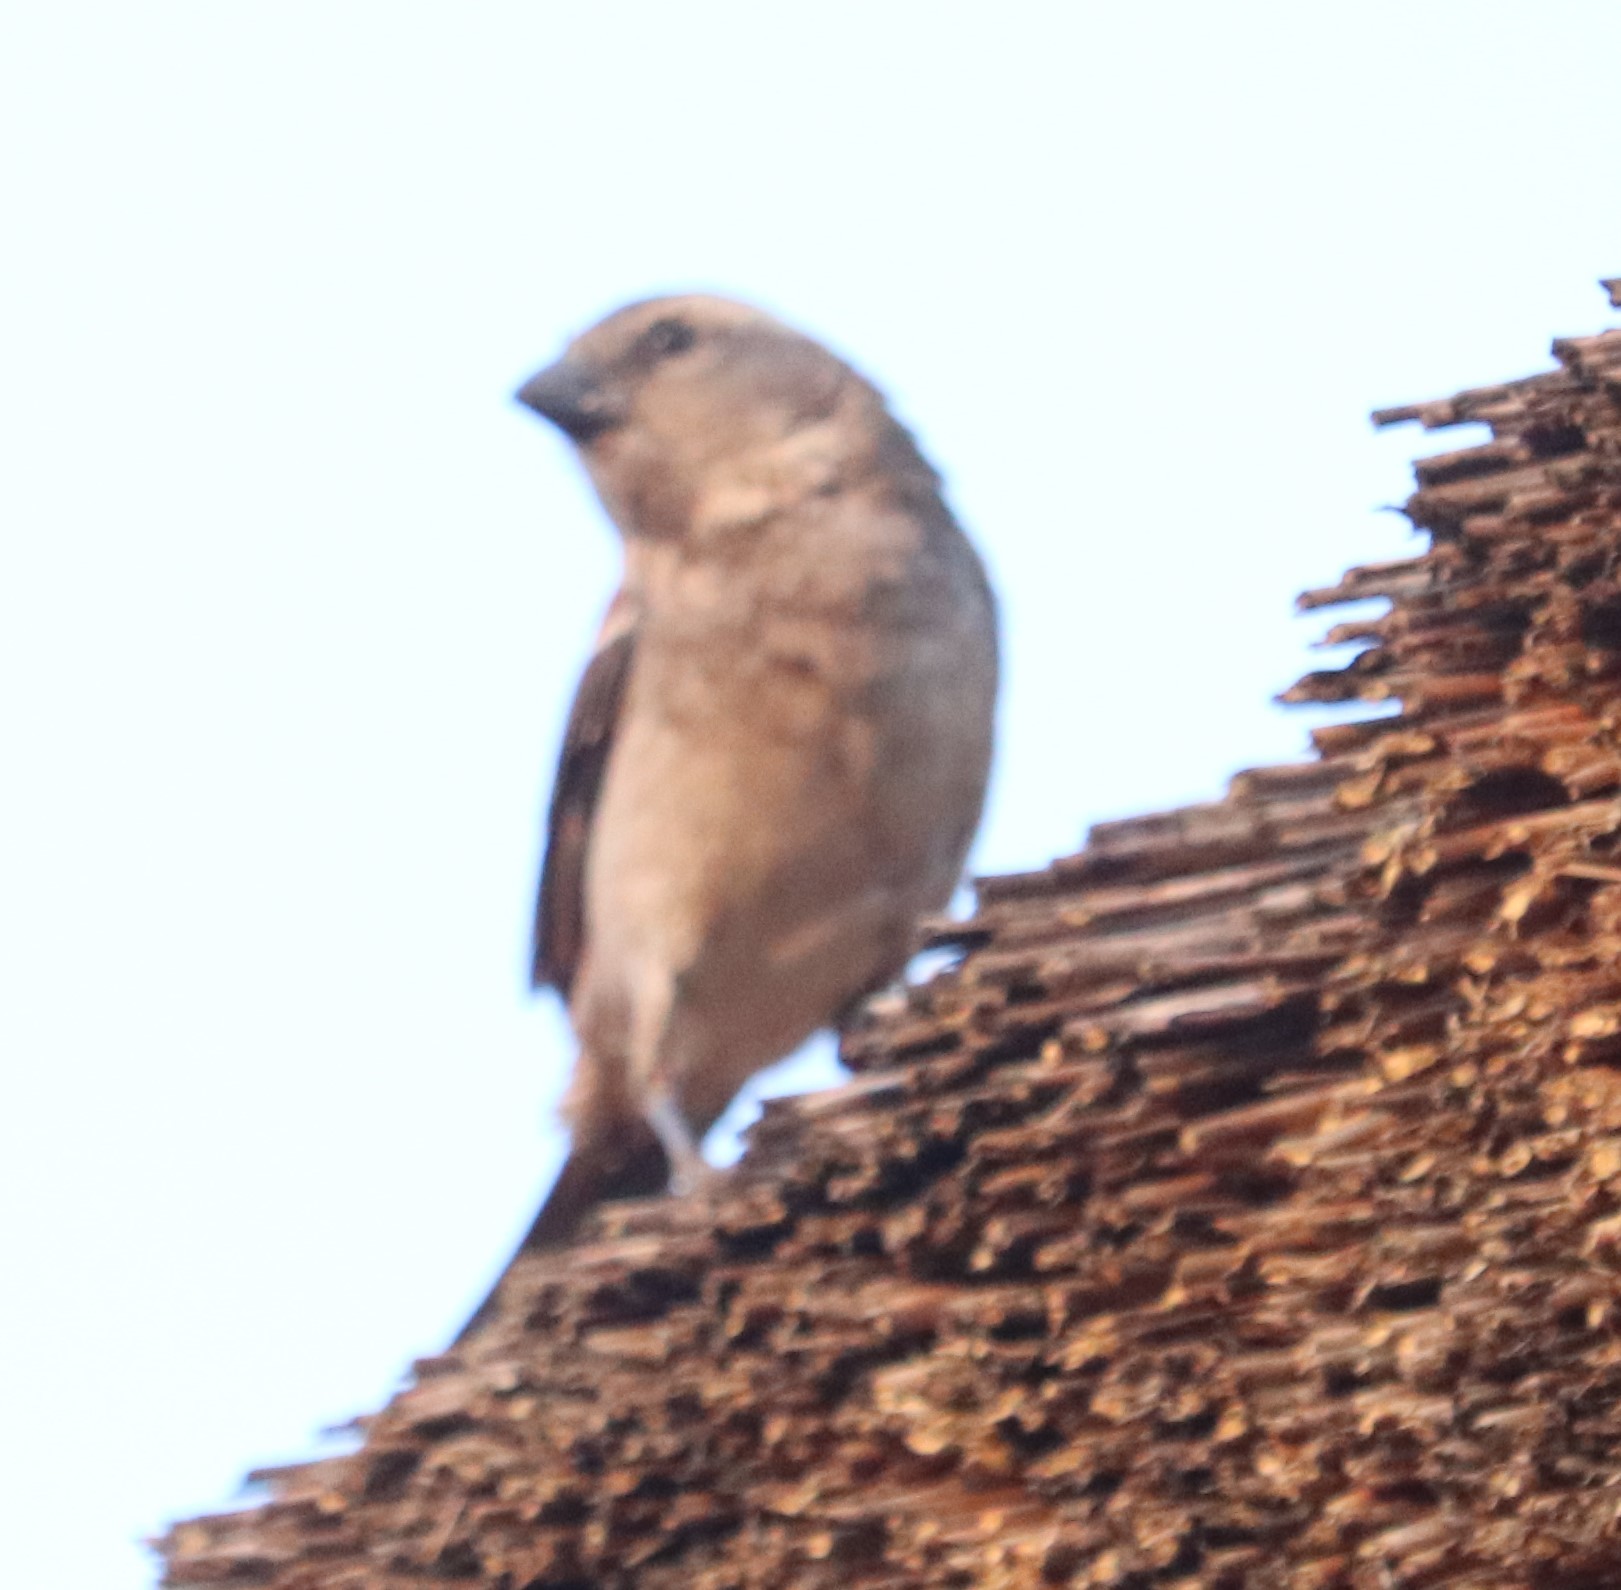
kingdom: Animalia
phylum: Chordata
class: Aves
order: Passeriformes
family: Passeridae
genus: Passer
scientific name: Passer melanurus
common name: Cape sparrow
